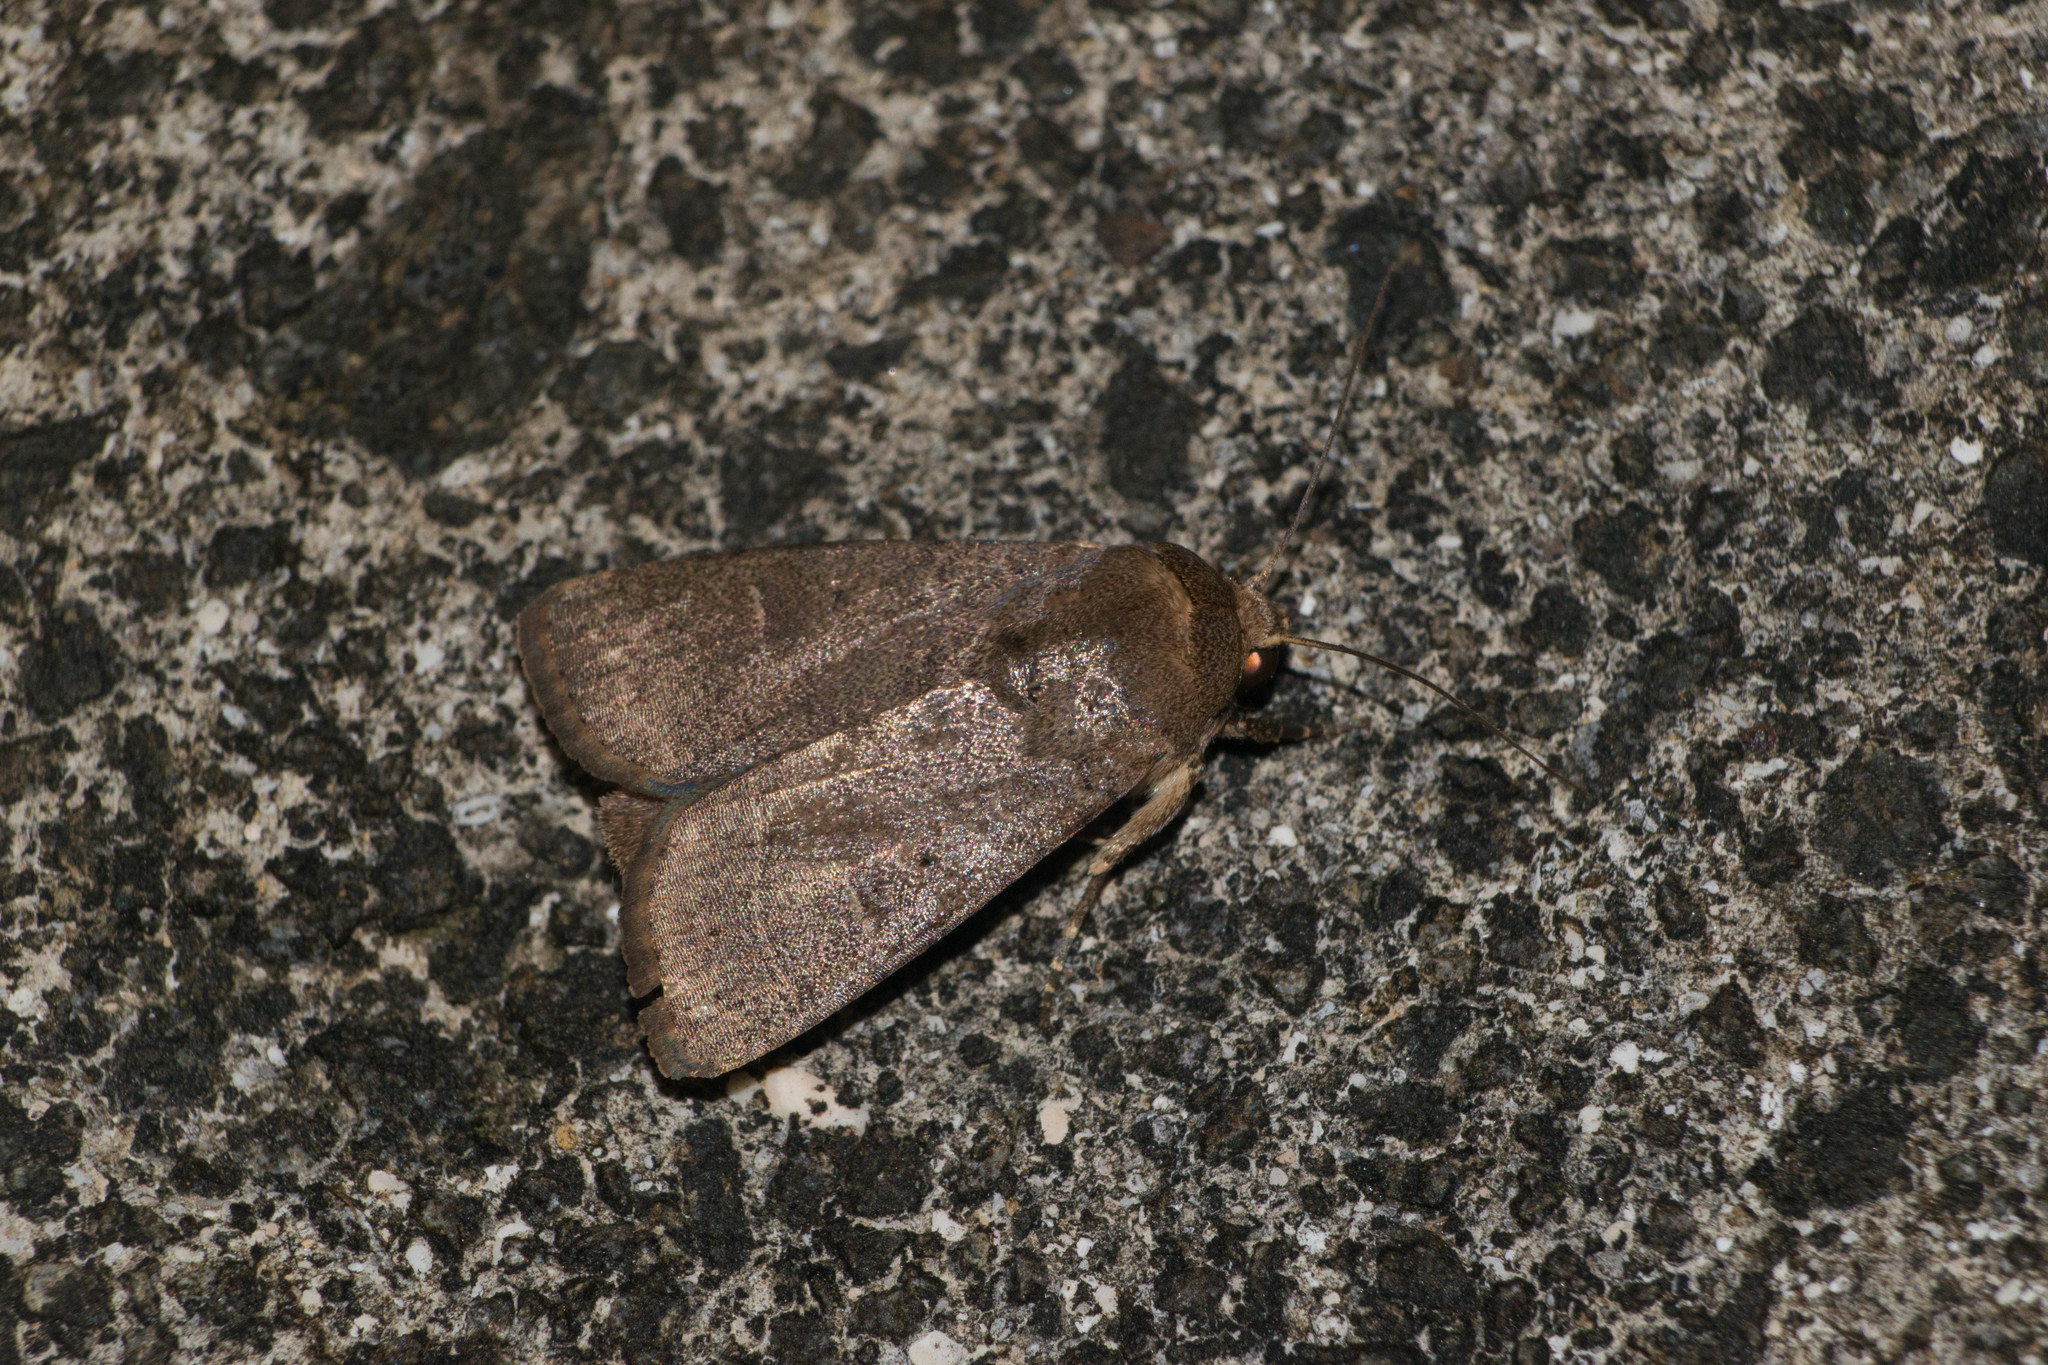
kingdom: Animalia
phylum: Arthropoda
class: Insecta
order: Lepidoptera
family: Noctuidae
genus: Athetis
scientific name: Athetis thoracica
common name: Cutworm
